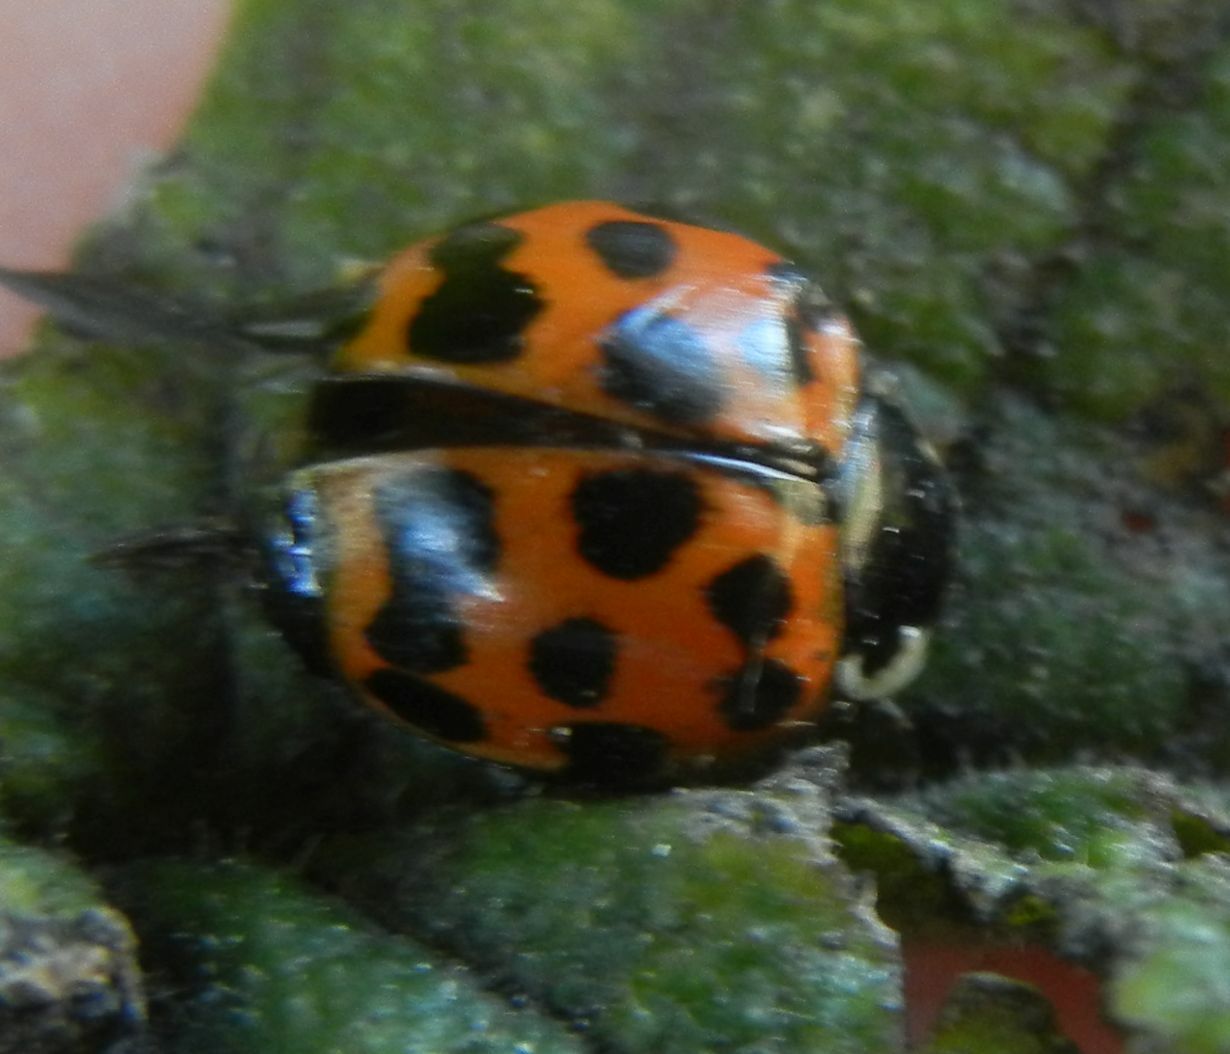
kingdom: Animalia
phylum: Arthropoda
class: Insecta
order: Coleoptera
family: Coccinellidae
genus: Harmonia
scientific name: Harmonia axyridis
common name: Harlequin ladybird
